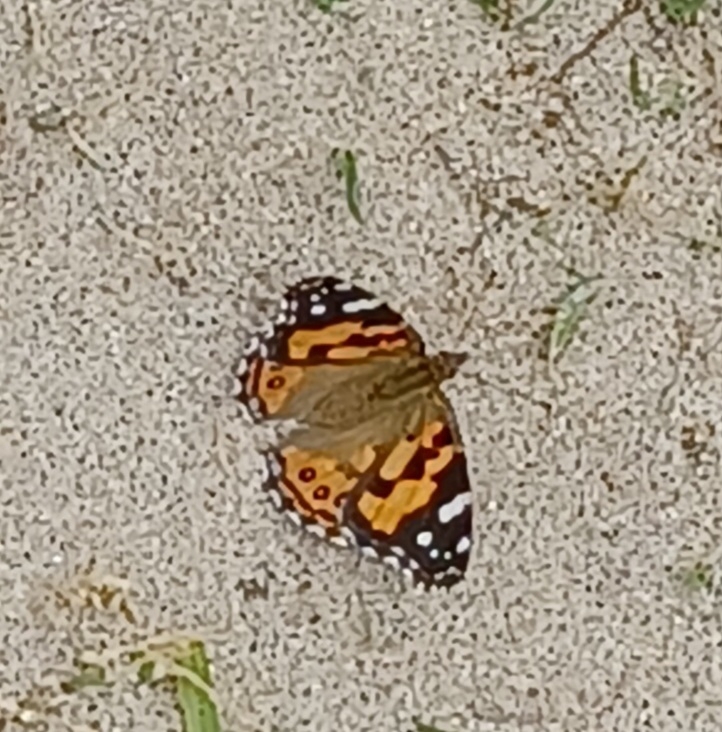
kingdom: Animalia
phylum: Arthropoda
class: Insecta
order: Lepidoptera
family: Nymphalidae
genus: Vanessa
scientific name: Vanessa kershawi
